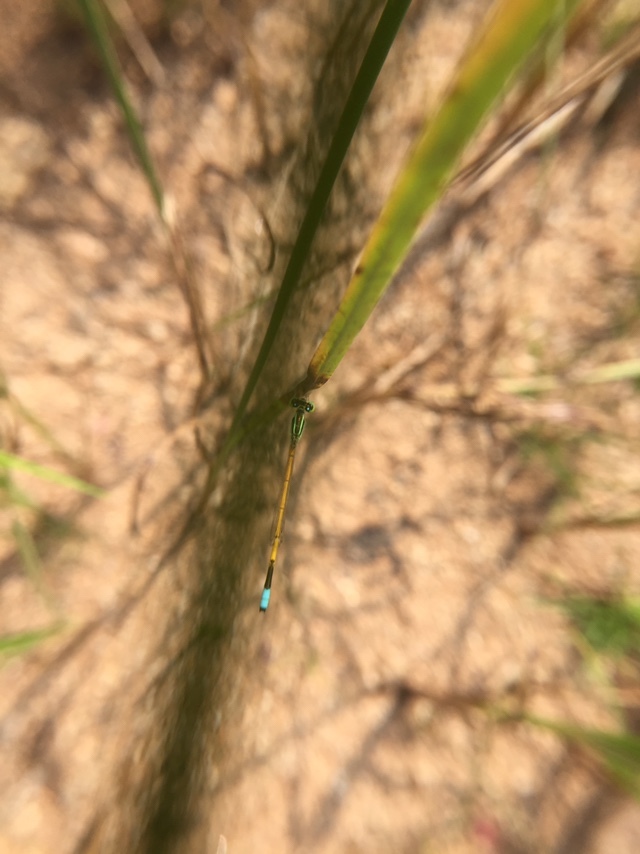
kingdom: Animalia
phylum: Arthropoda
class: Insecta
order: Odonata
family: Coenagrionidae
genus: Ischnura
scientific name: Ischnura rubilio
